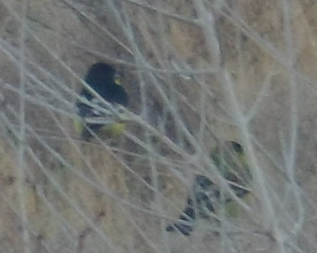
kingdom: Animalia
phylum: Chordata
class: Aves
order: Passeriformes
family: Fringillidae
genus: Spinus
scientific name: Spinus psaltria
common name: Lesser goldfinch
